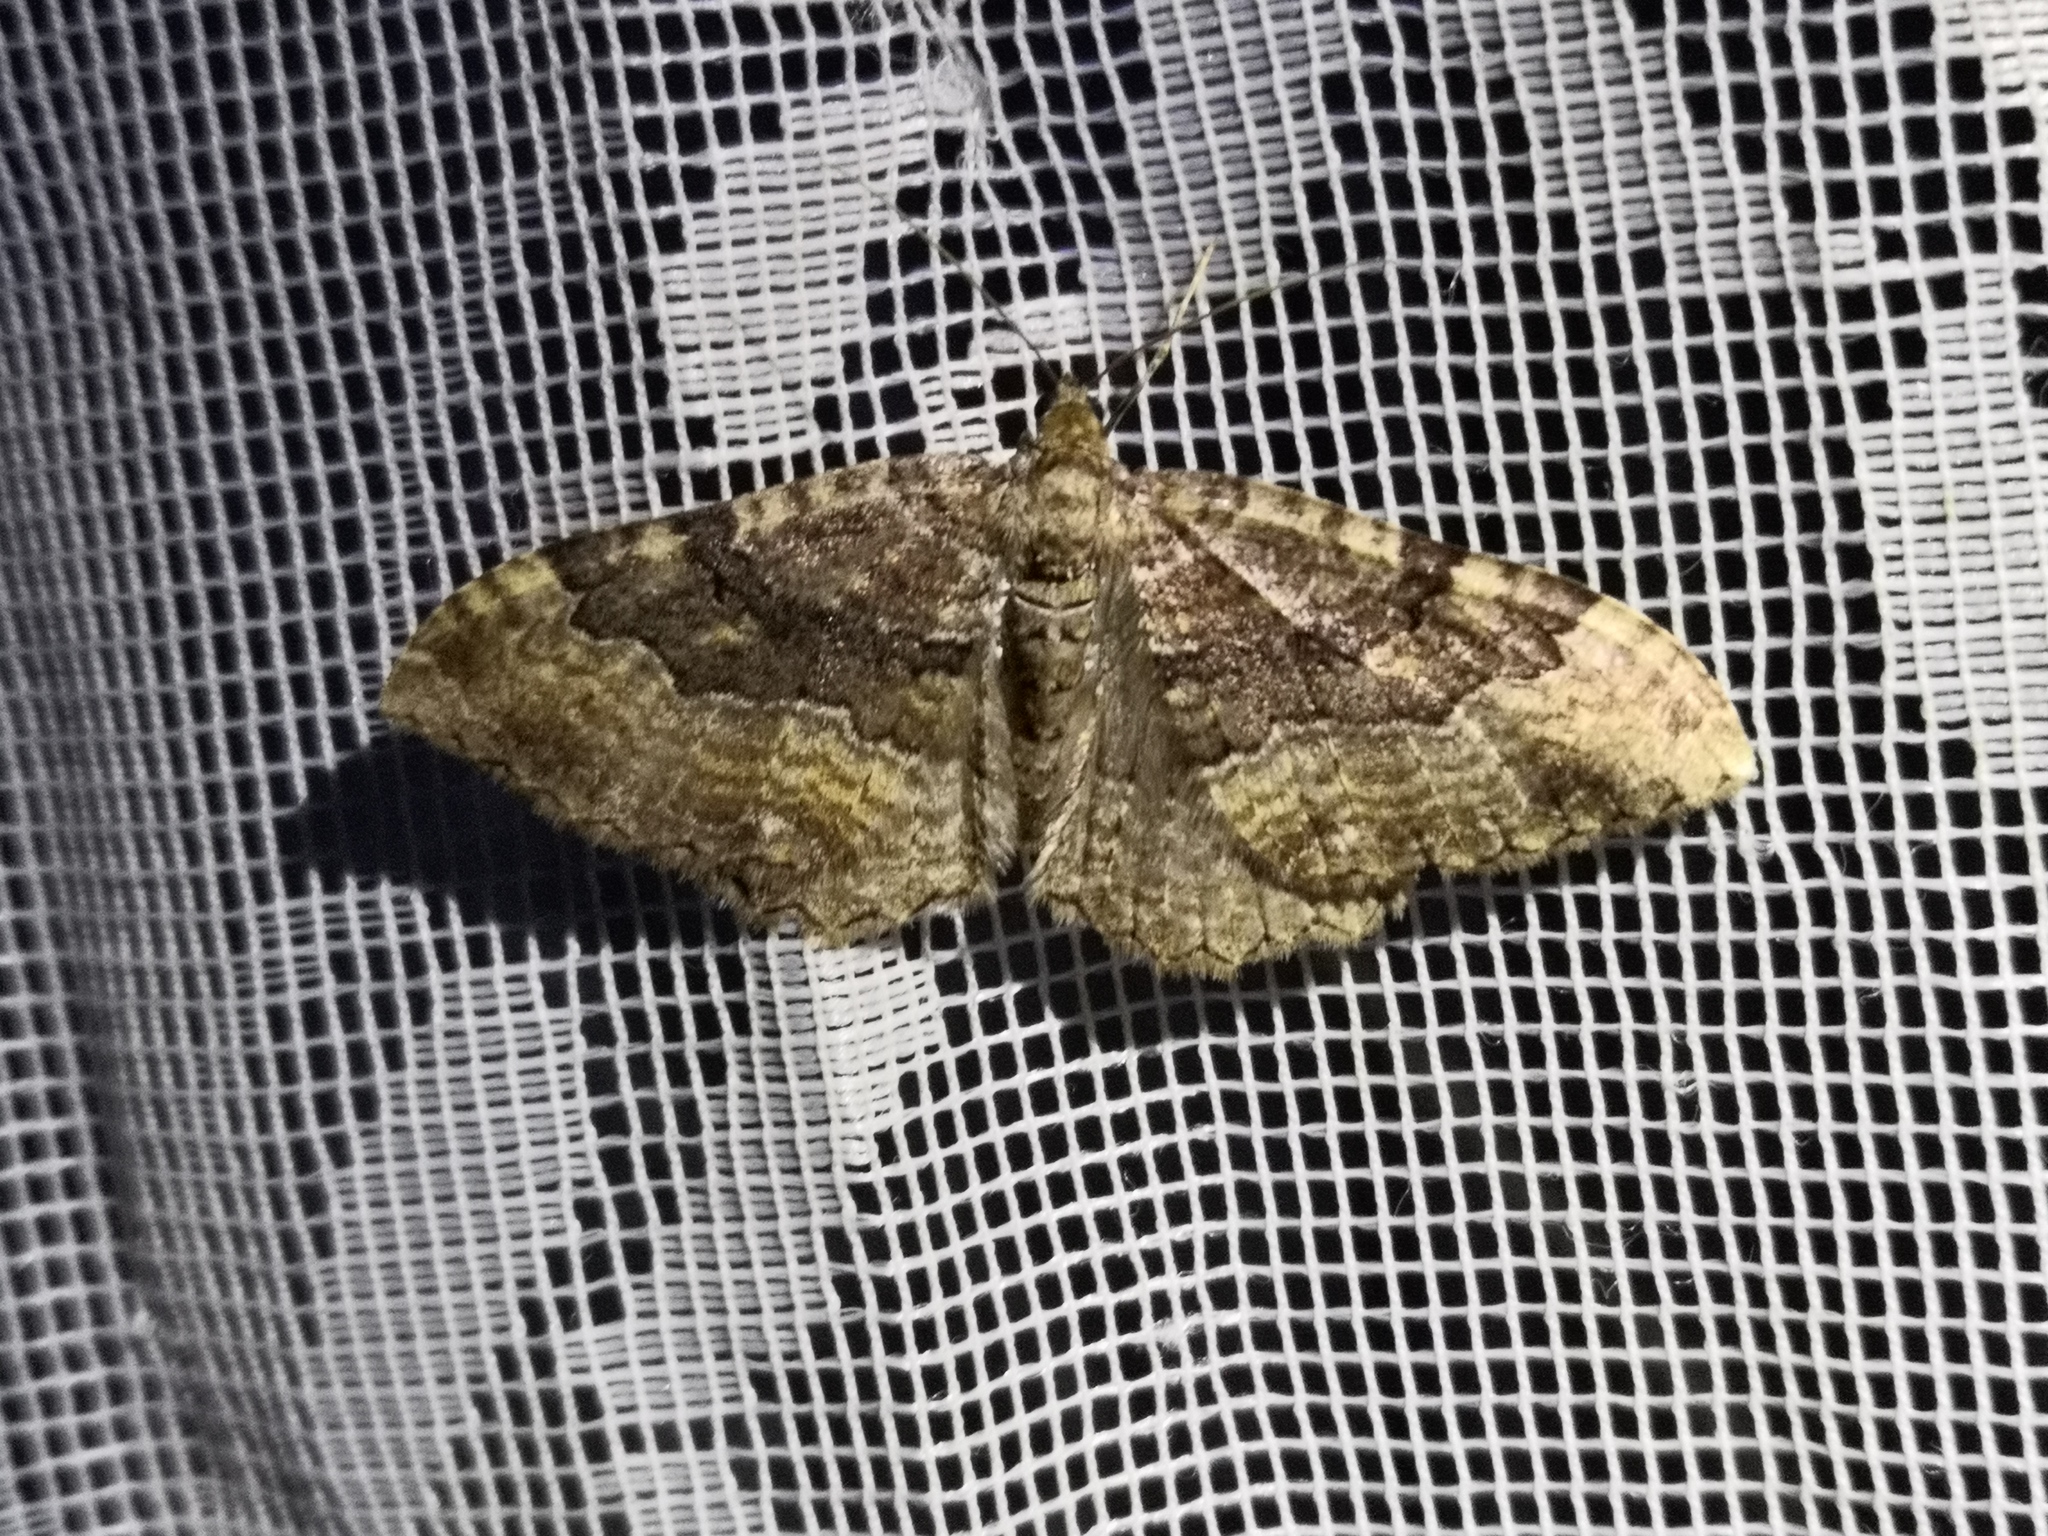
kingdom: Animalia
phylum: Arthropoda
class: Insecta
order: Lepidoptera
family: Geometridae
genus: Rheumaptera
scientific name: Rheumaptera Hydria cervinalis
